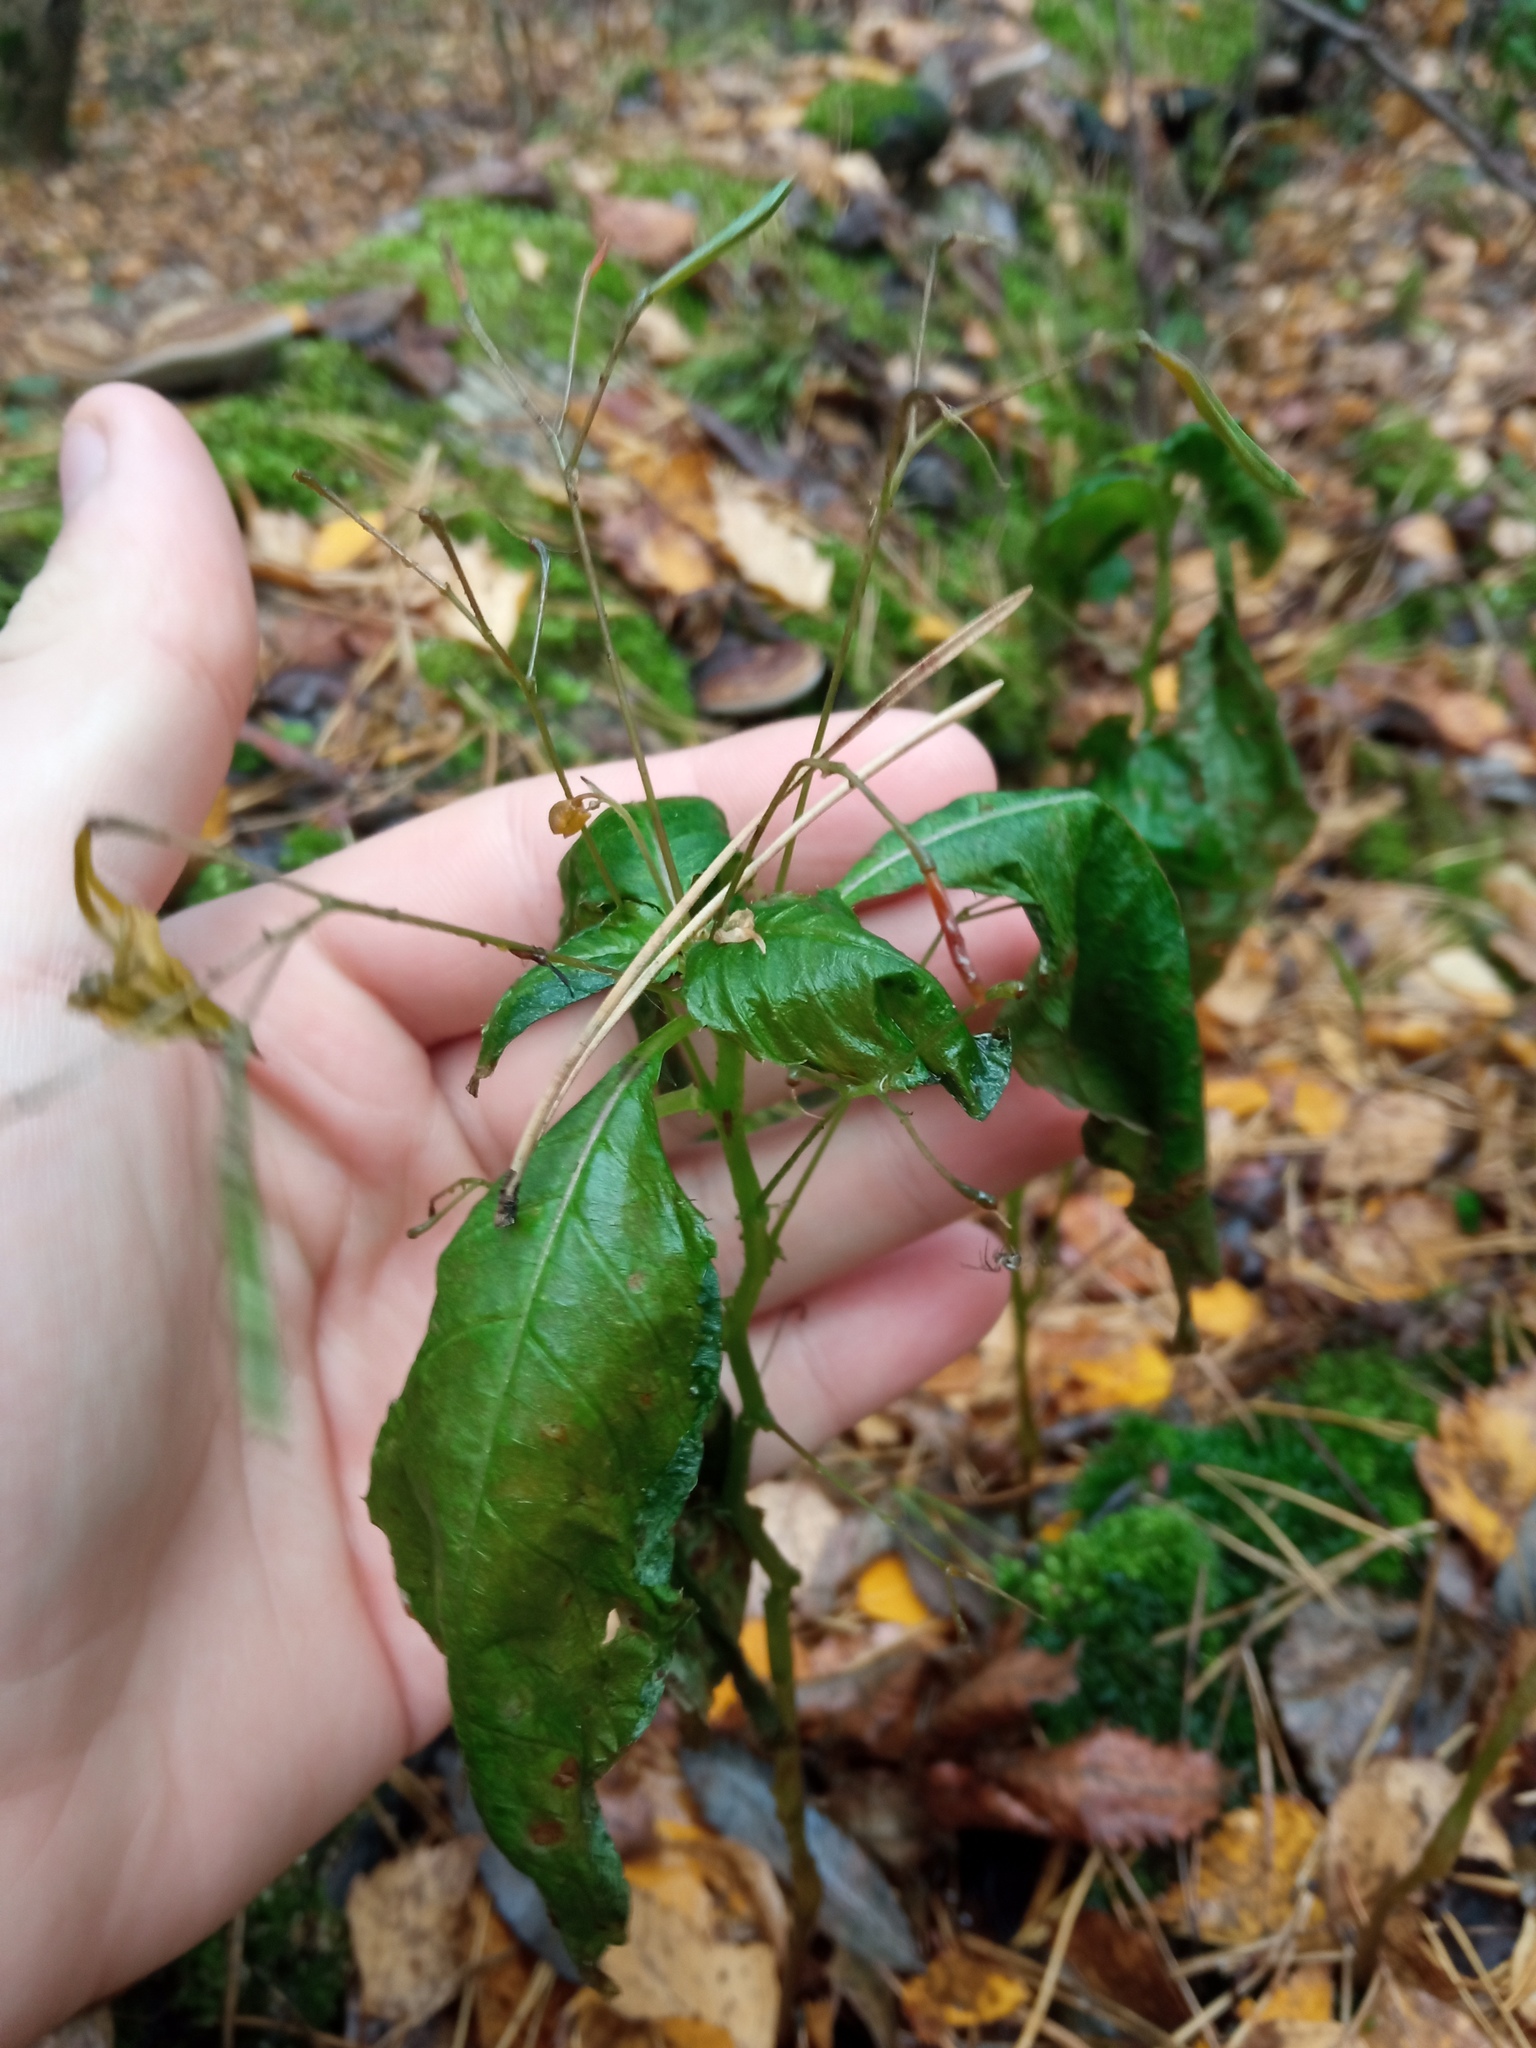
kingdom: Plantae
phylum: Tracheophyta
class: Magnoliopsida
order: Ericales
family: Balsaminaceae
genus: Impatiens
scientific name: Impatiens parviflora
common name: Small balsam
